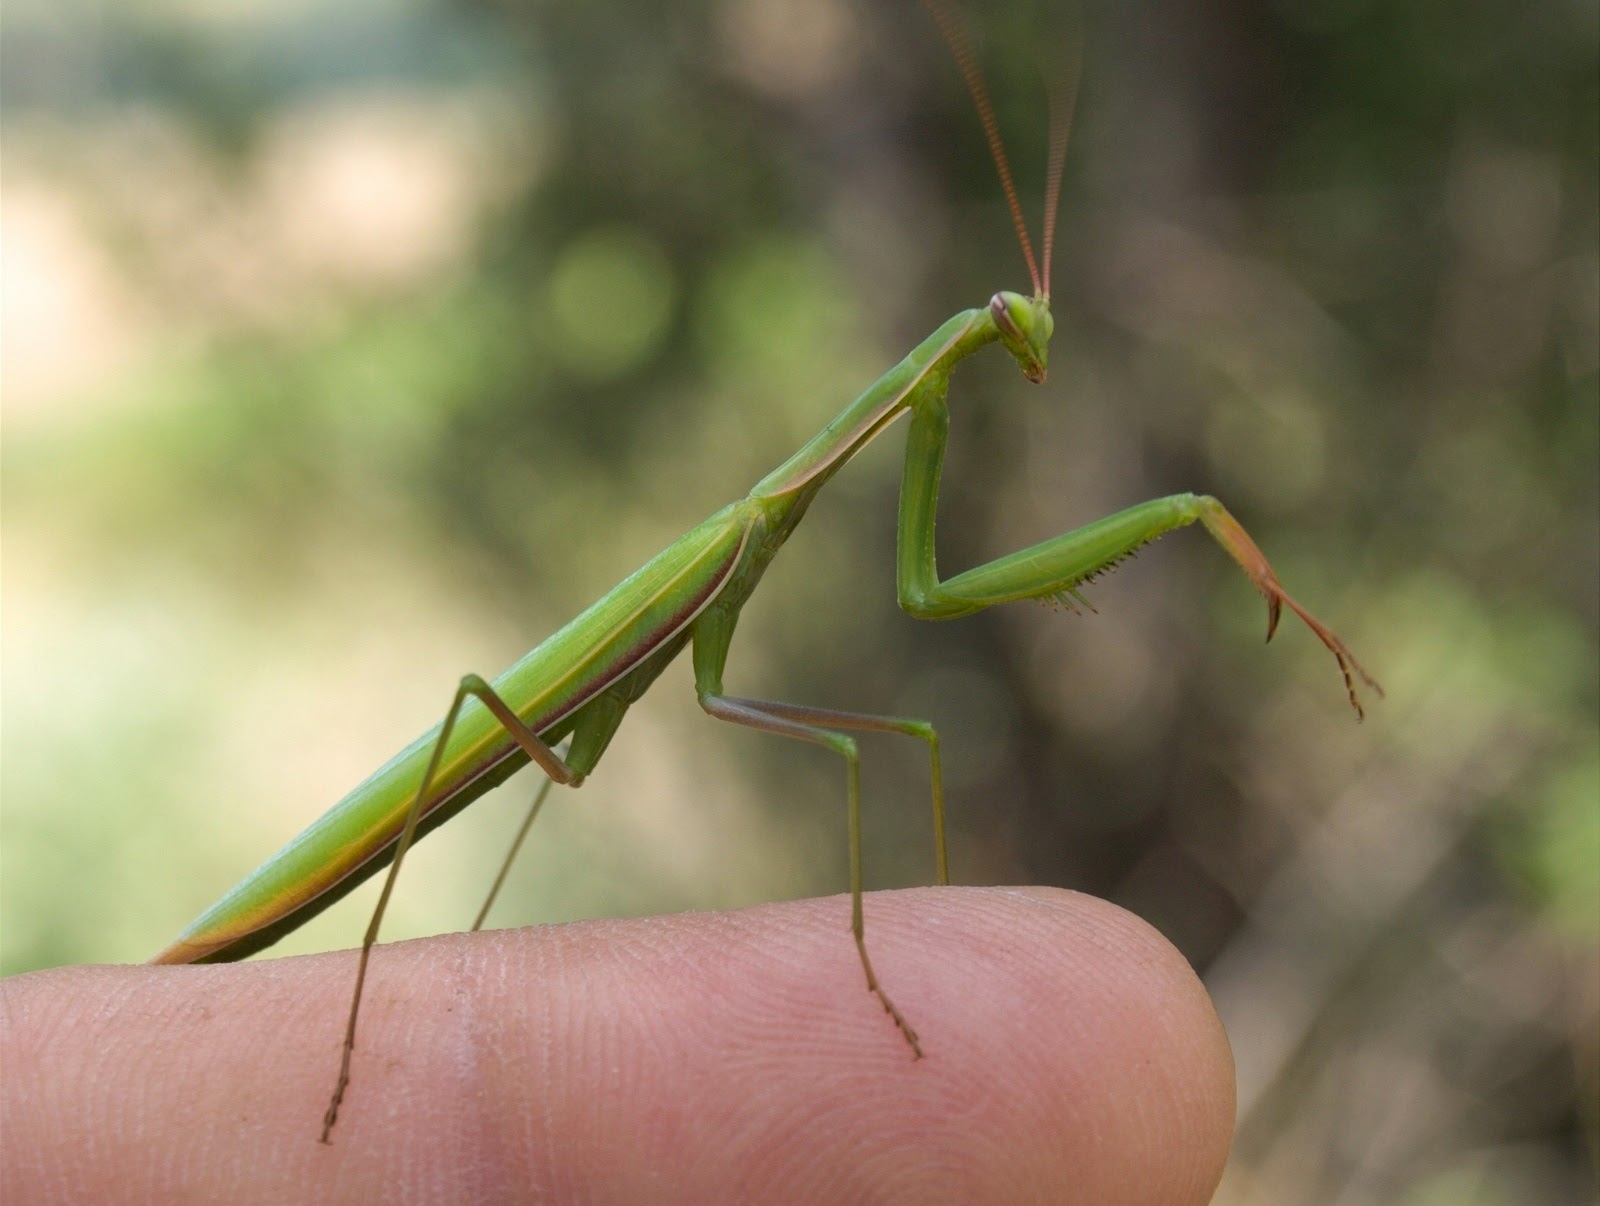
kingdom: Animalia
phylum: Arthropoda
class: Insecta
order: Mantodea
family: Mantidae
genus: Mantis
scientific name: Mantis religiosa
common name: Praying mantis
